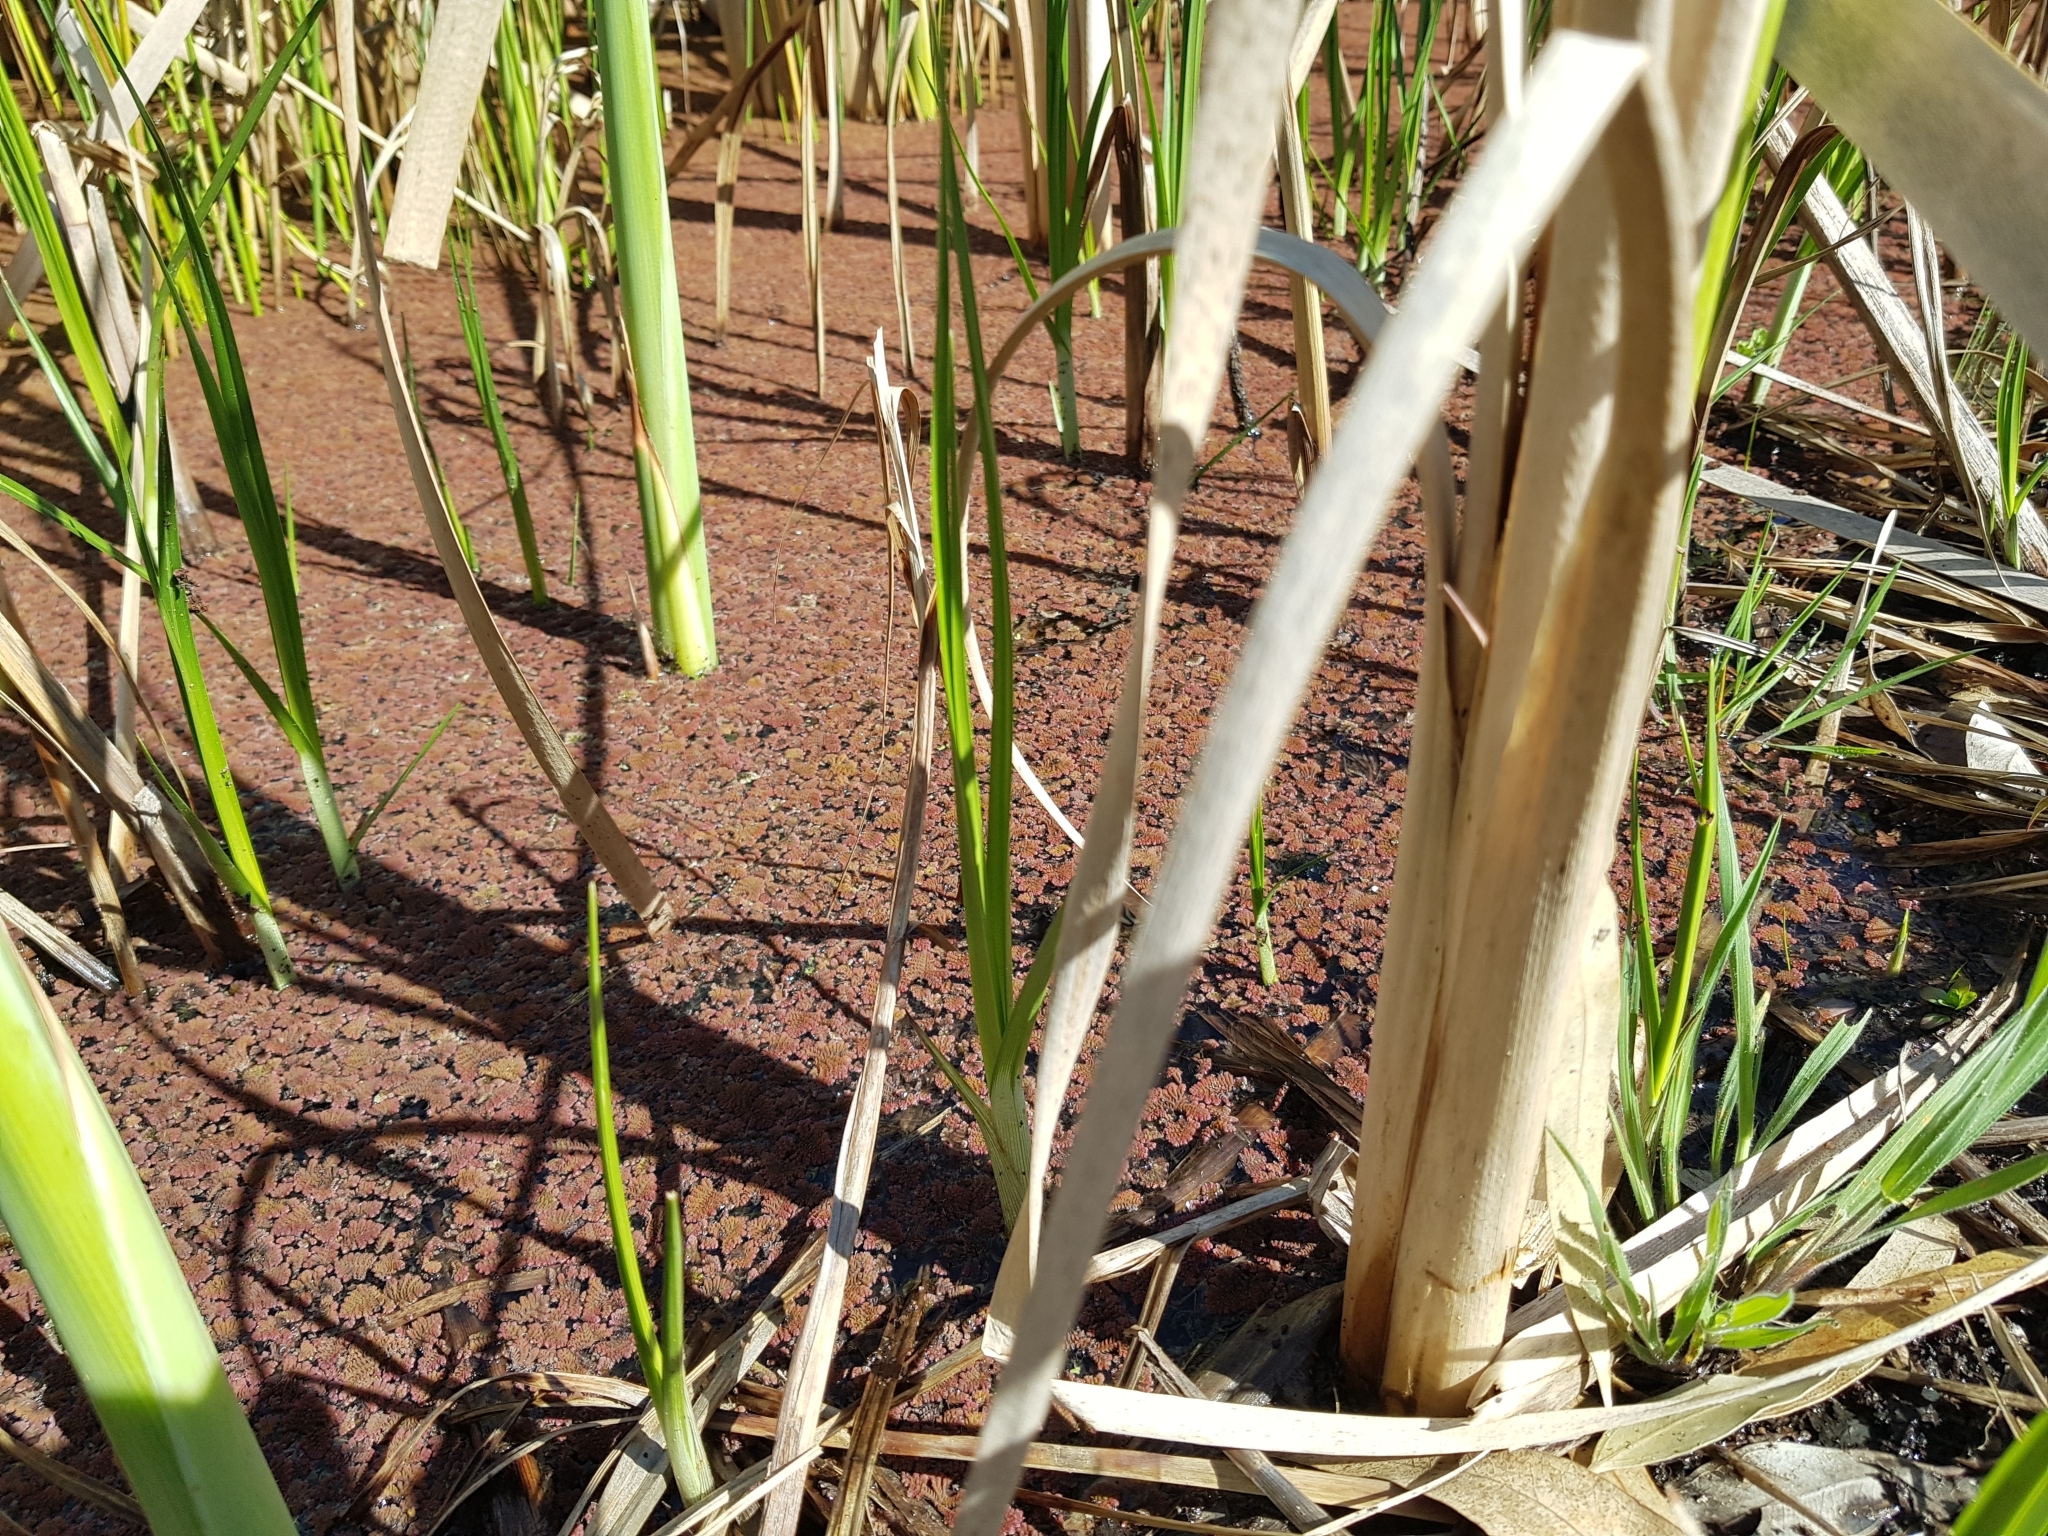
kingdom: Plantae
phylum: Tracheophyta
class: Polypodiopsida
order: Salviniales
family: Salviniaceae
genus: Azolla
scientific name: Azolla pinnata
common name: Ferny azolla
